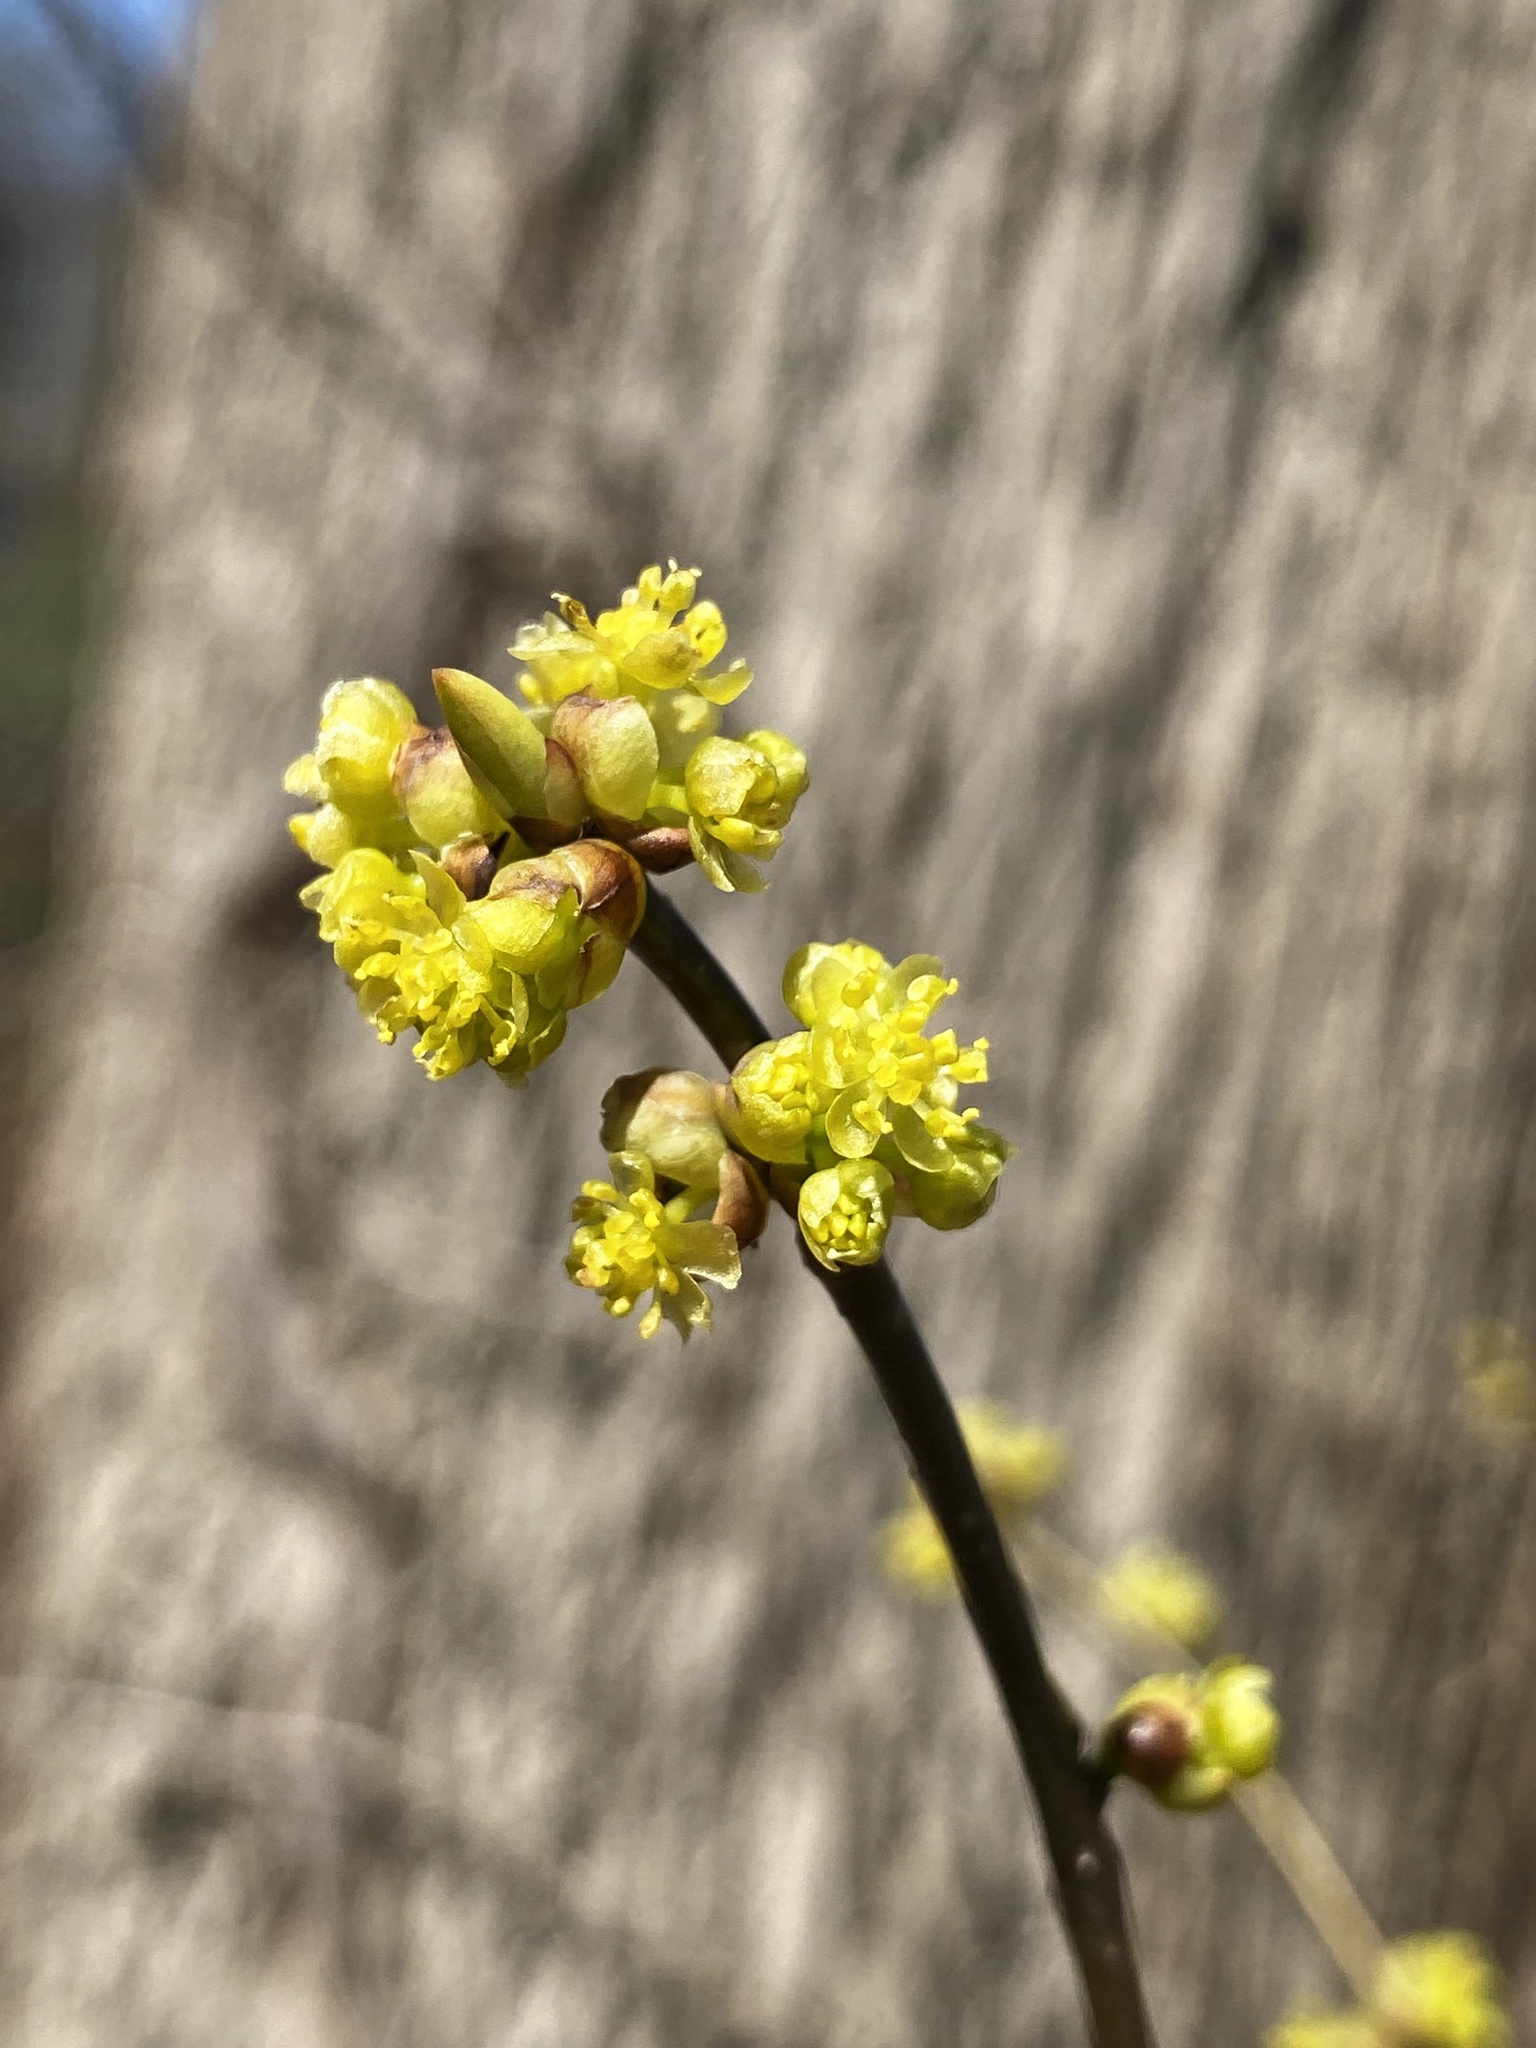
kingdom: Plantae
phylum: Tracheophyta
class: Magnoliopsida
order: Laurales
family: Lauraceae
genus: Lindera
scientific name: Lindera benzoin
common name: Spicebush
